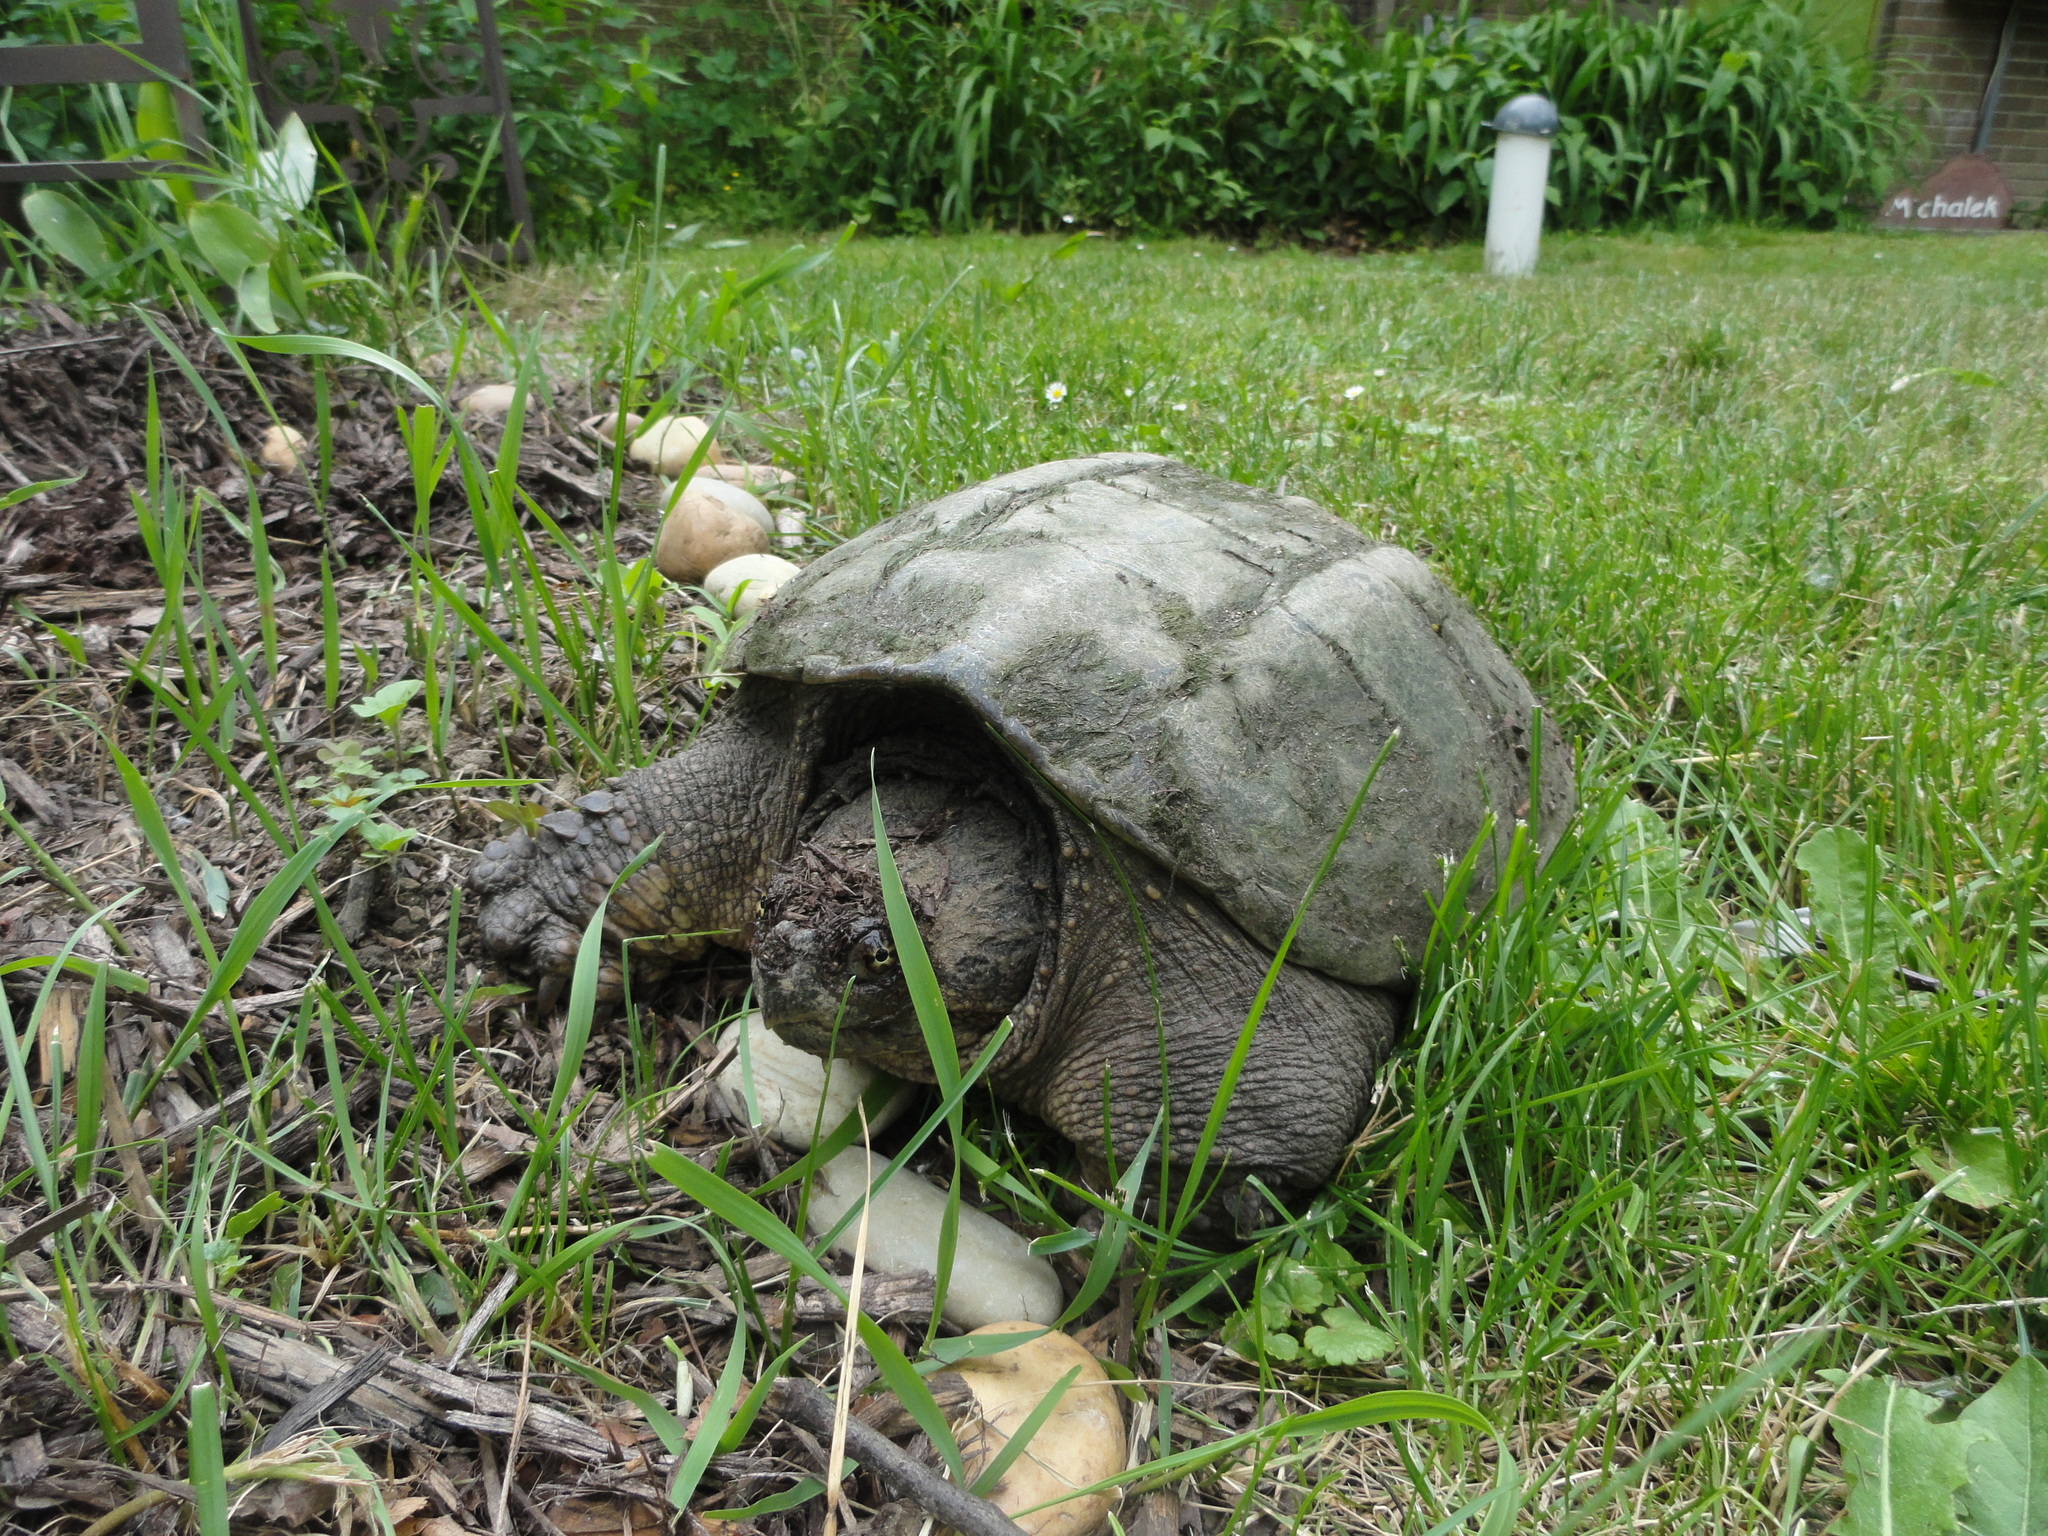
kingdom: Animalia
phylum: Chordata
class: Testudines
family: Chelydridae
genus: Chelydra
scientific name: Chelydra serpentina
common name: Common snapping turtle
